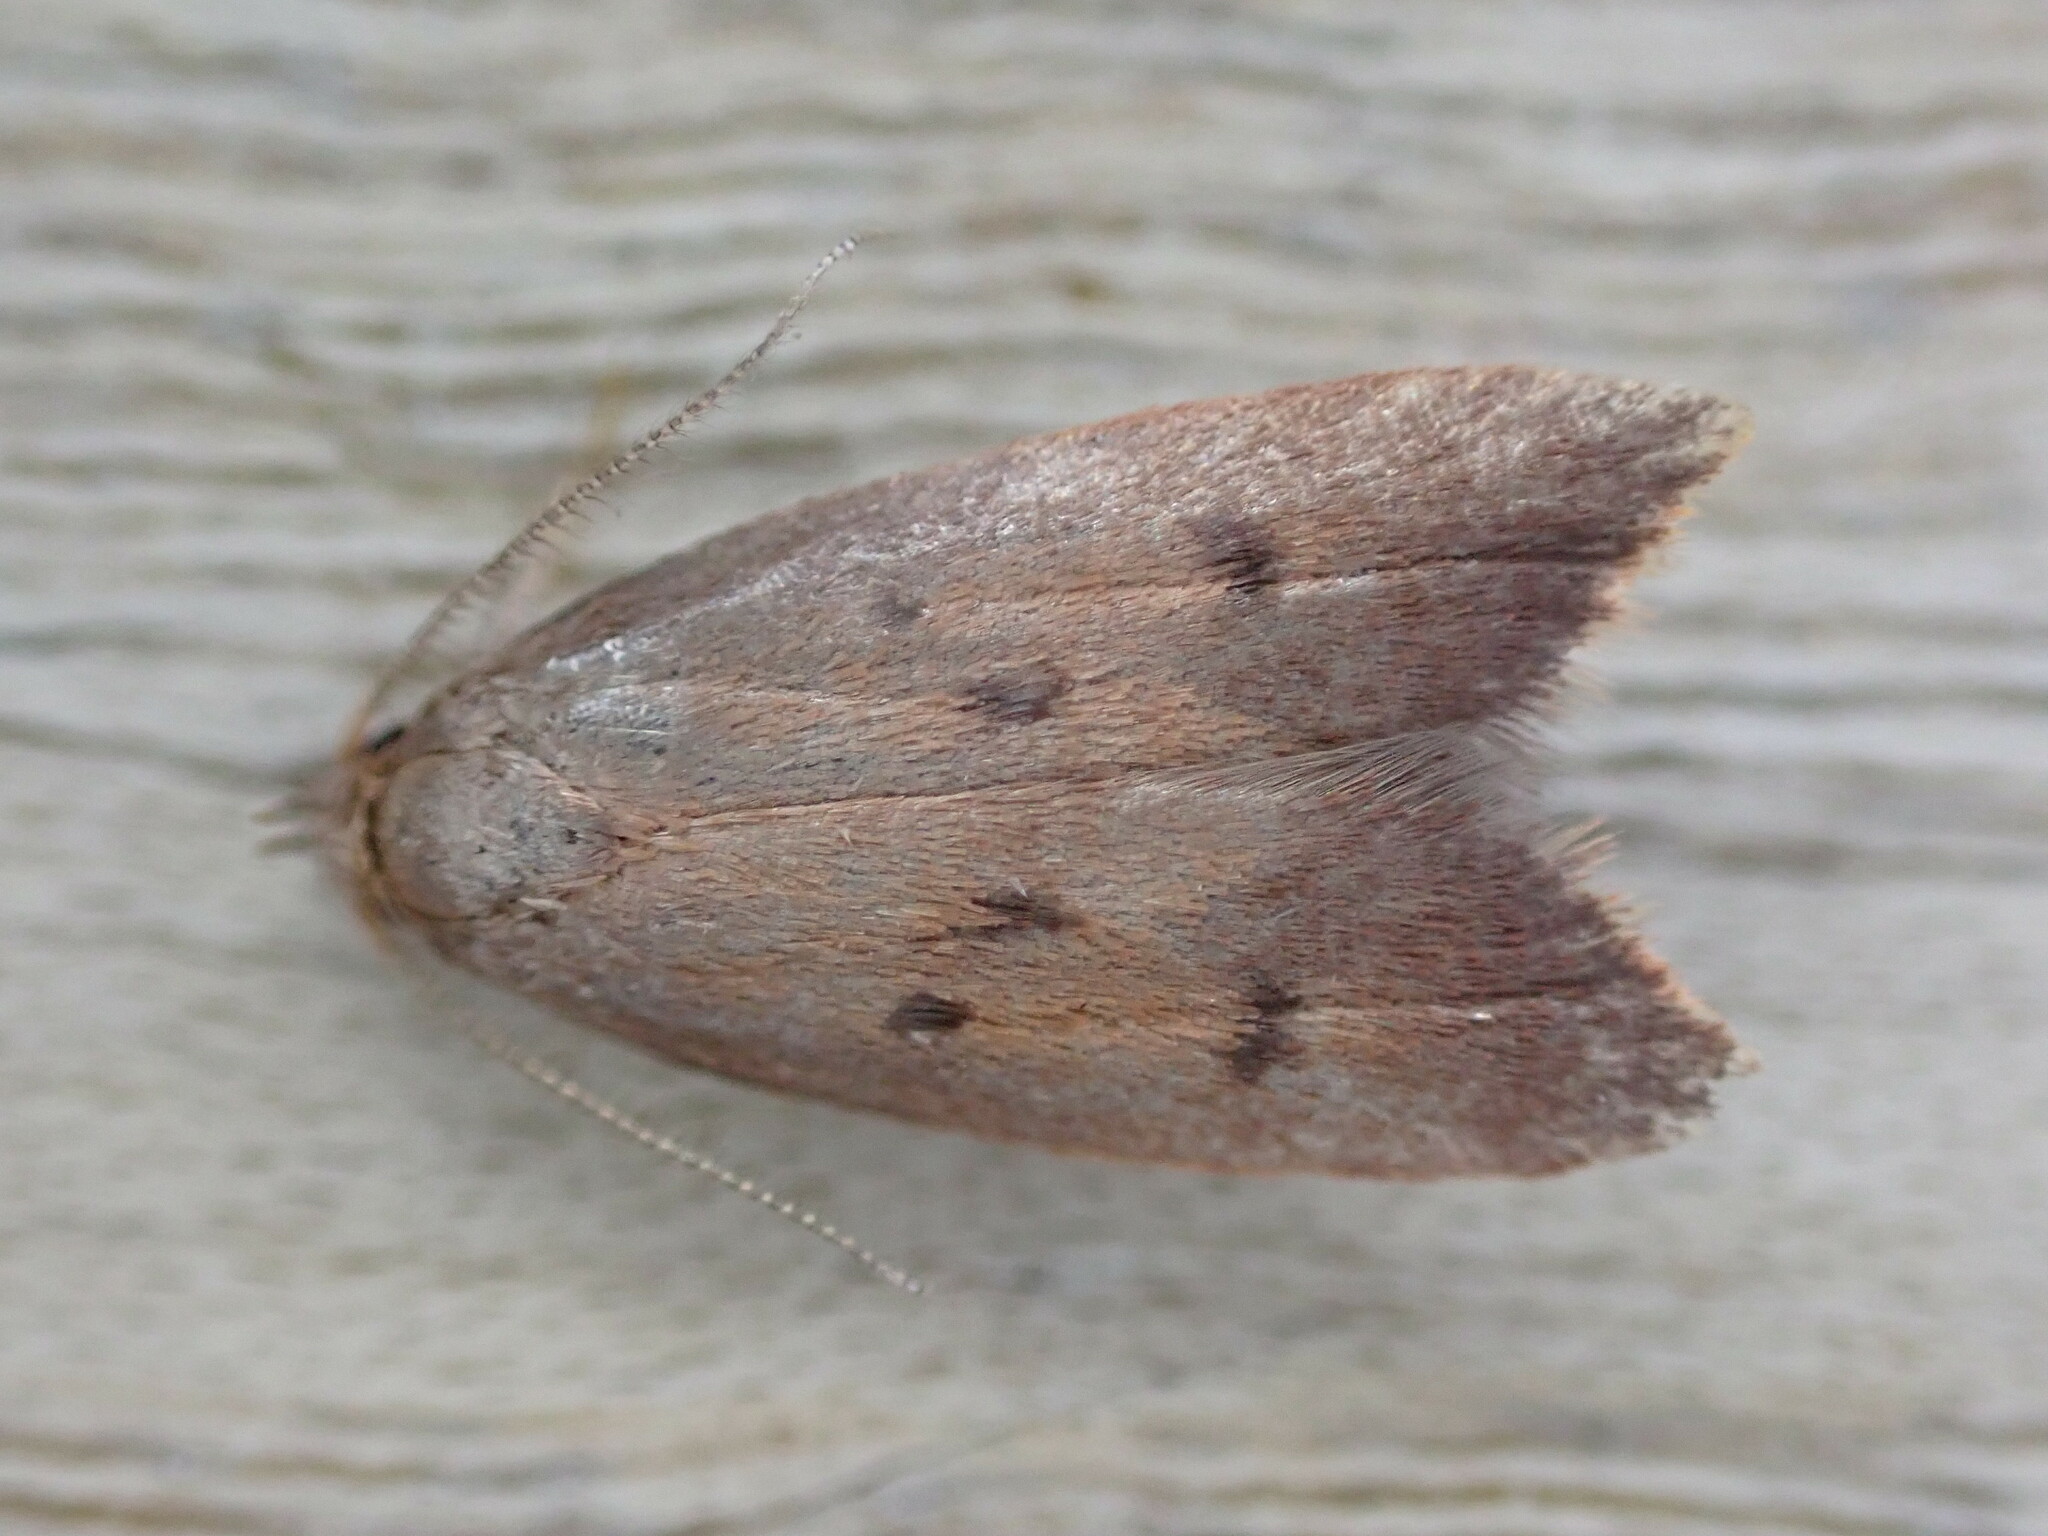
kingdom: Animalia
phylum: Arthropoda
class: Insecta
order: Lepidoptera
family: Oecophoridae
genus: Tachystola
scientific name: Tachystola acroxantha
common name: Ruddy streak
